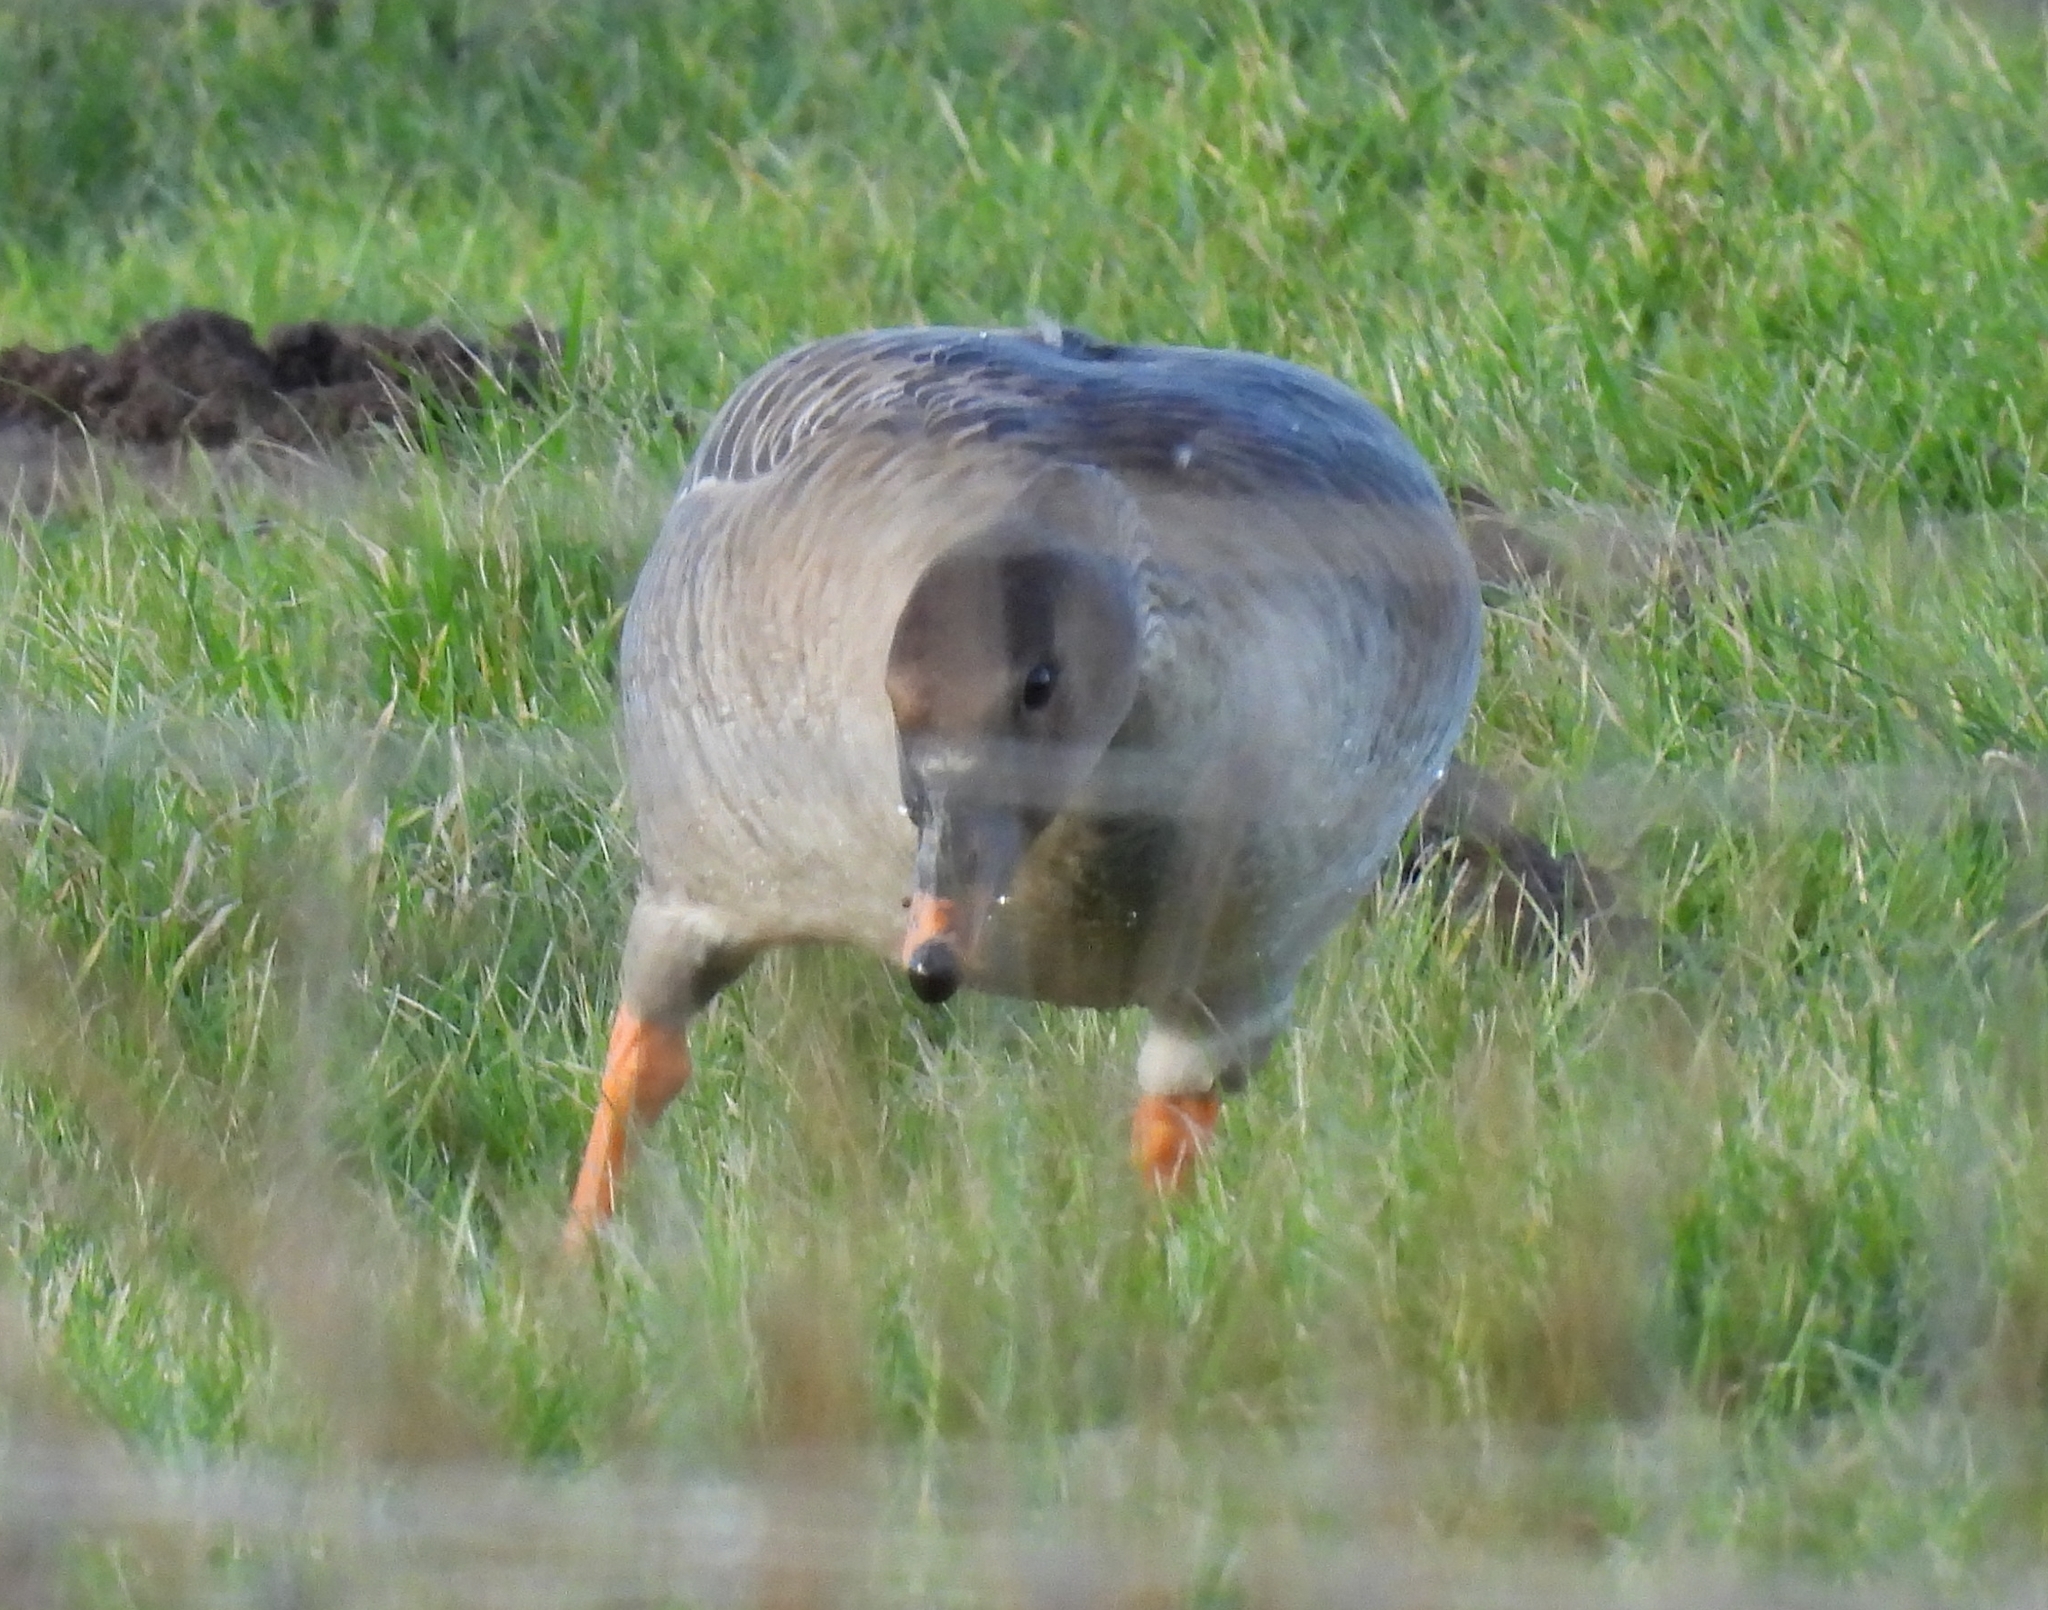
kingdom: Animalia
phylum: Chordata
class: Aves
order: Anseriformes
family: Anatidae
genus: Anser
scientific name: Anser serrirostris
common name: Tundra bean goose
